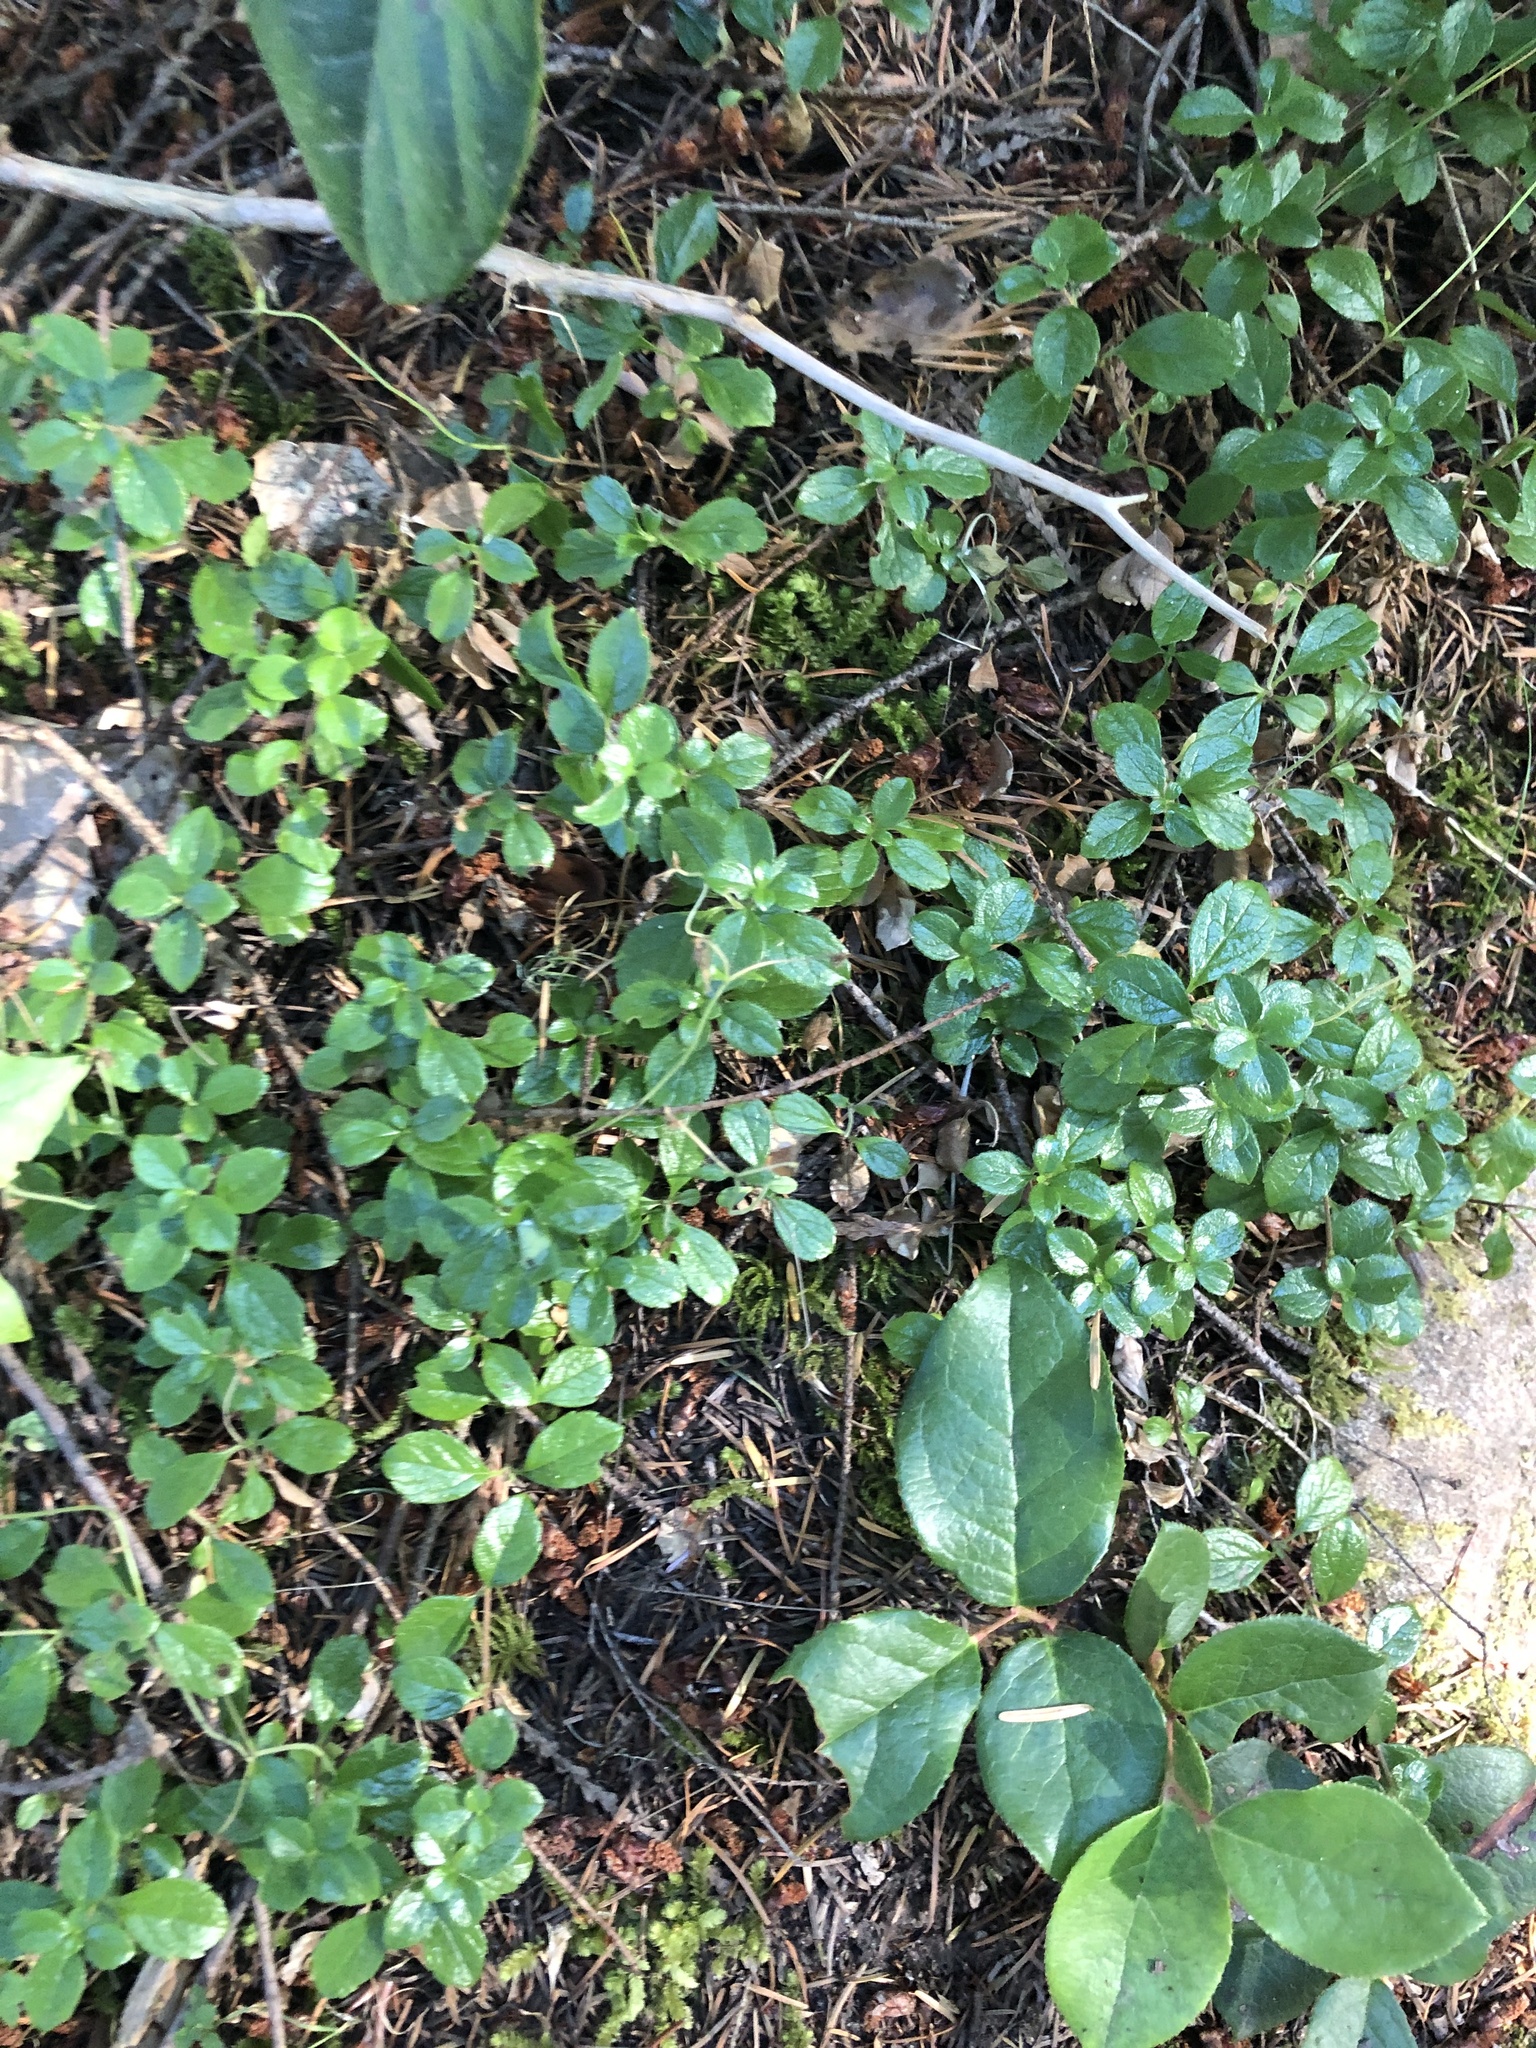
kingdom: Plantae
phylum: Tracheophyta
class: Magnoliopsida
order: Dipsacales
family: Caprifoliaceae
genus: Linnaea
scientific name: Linnaea borealis
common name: Twinflower
